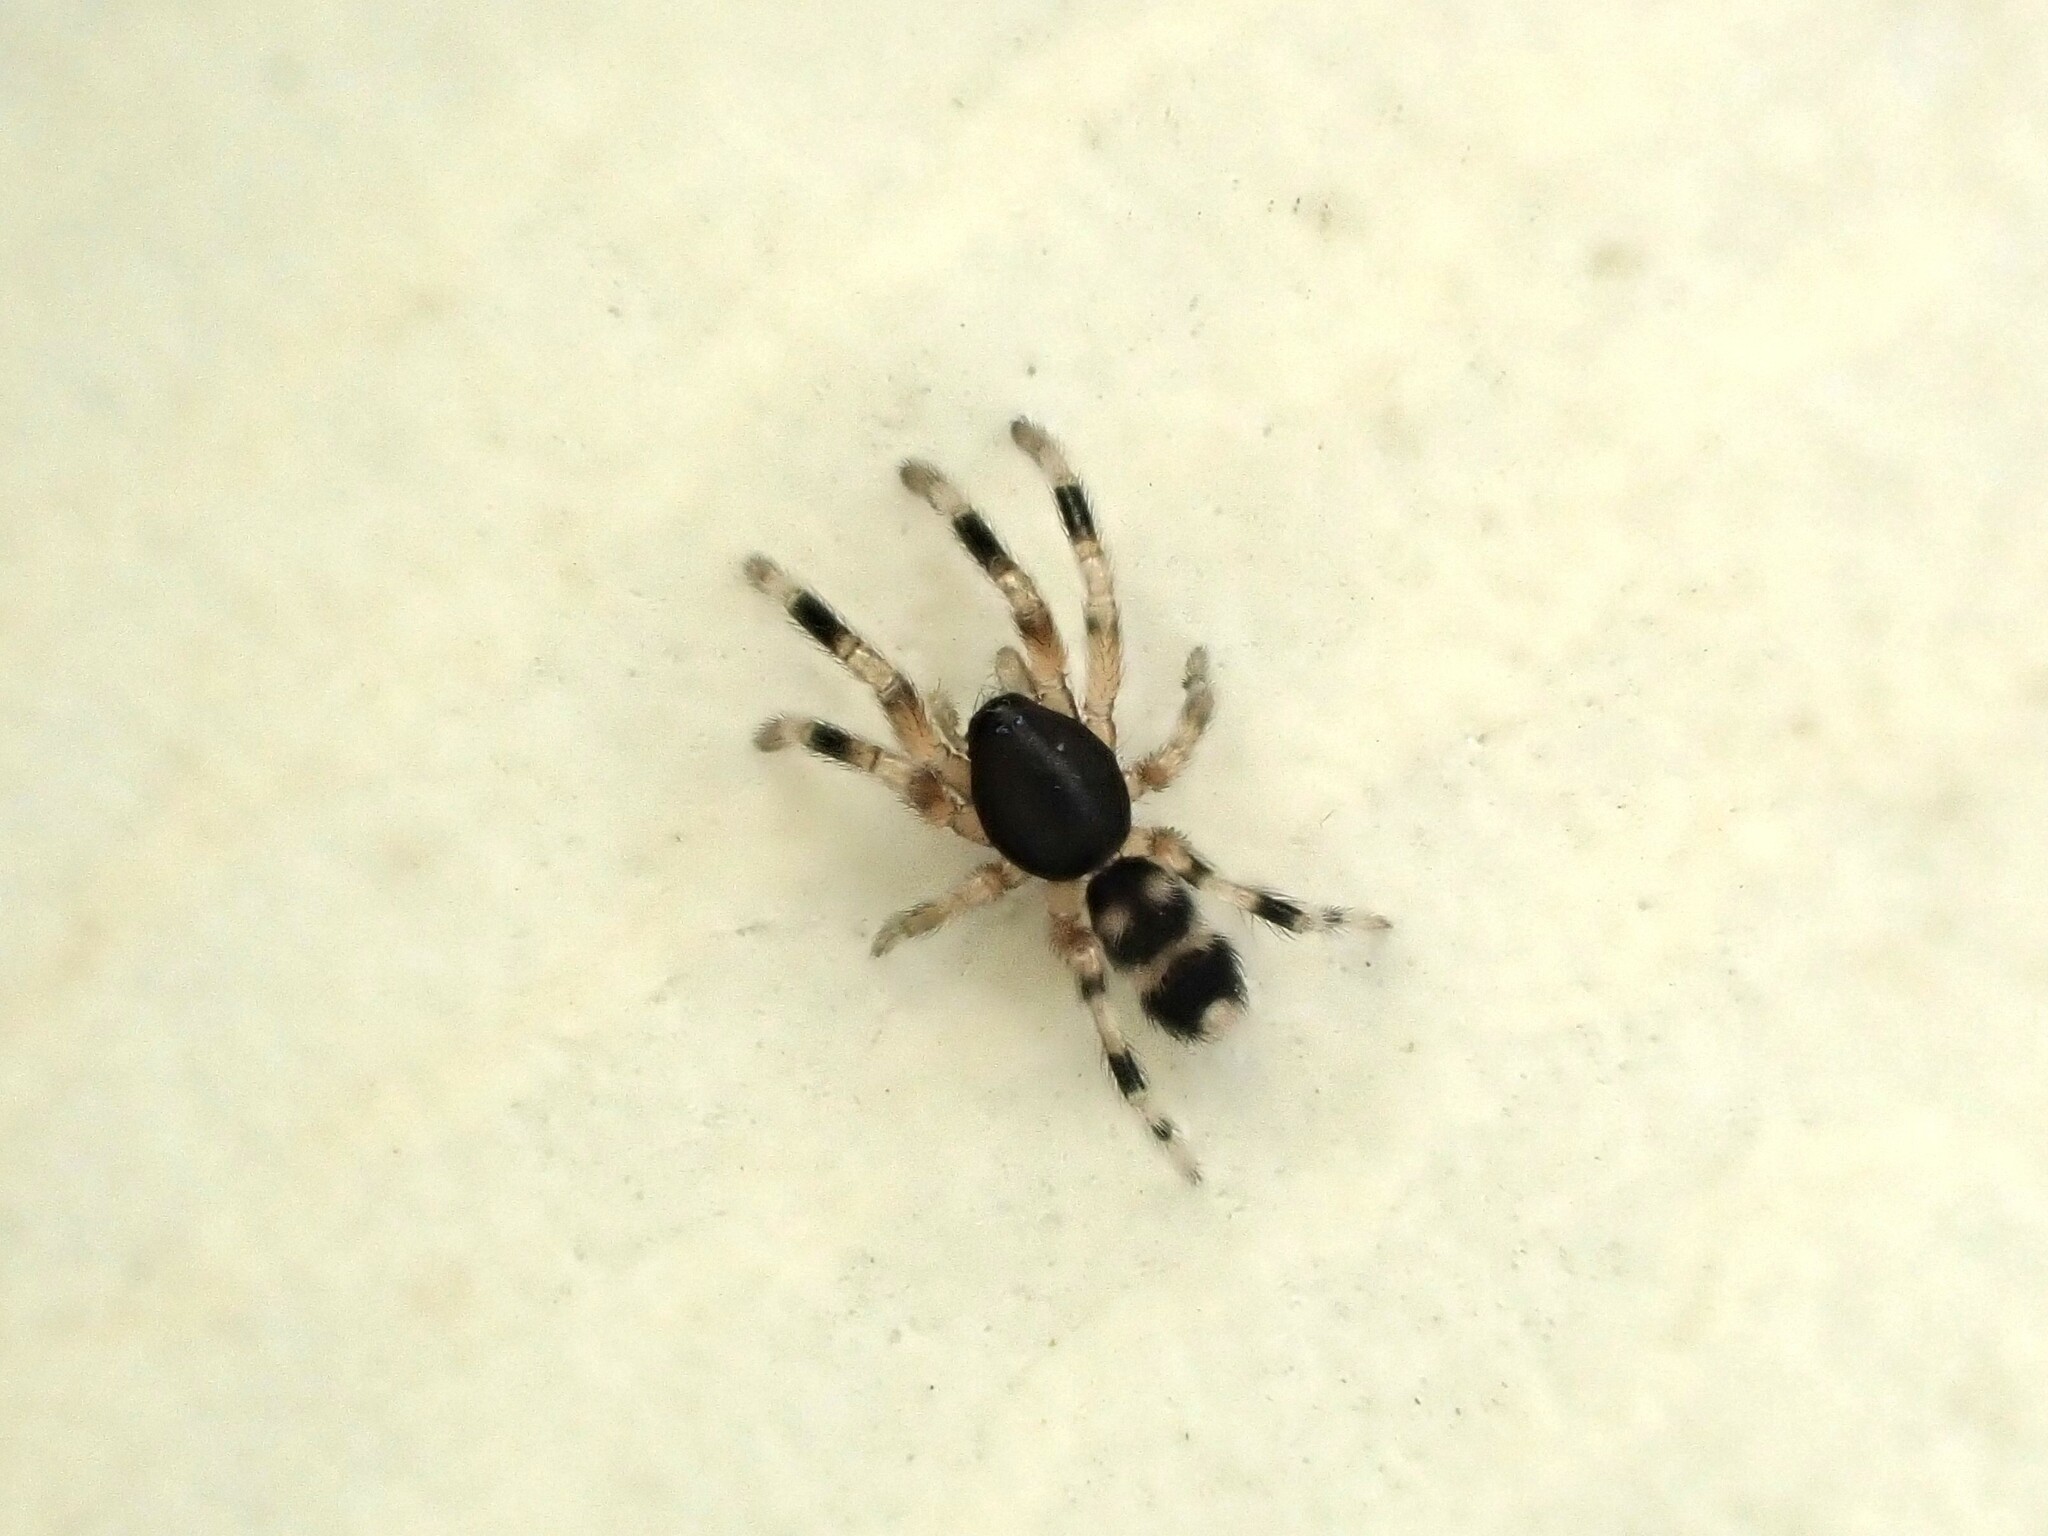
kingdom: Animalia
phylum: Arthropoda
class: Arachnida
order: Araneae
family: Lamponidae
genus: Lampona
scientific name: Lampona murina
